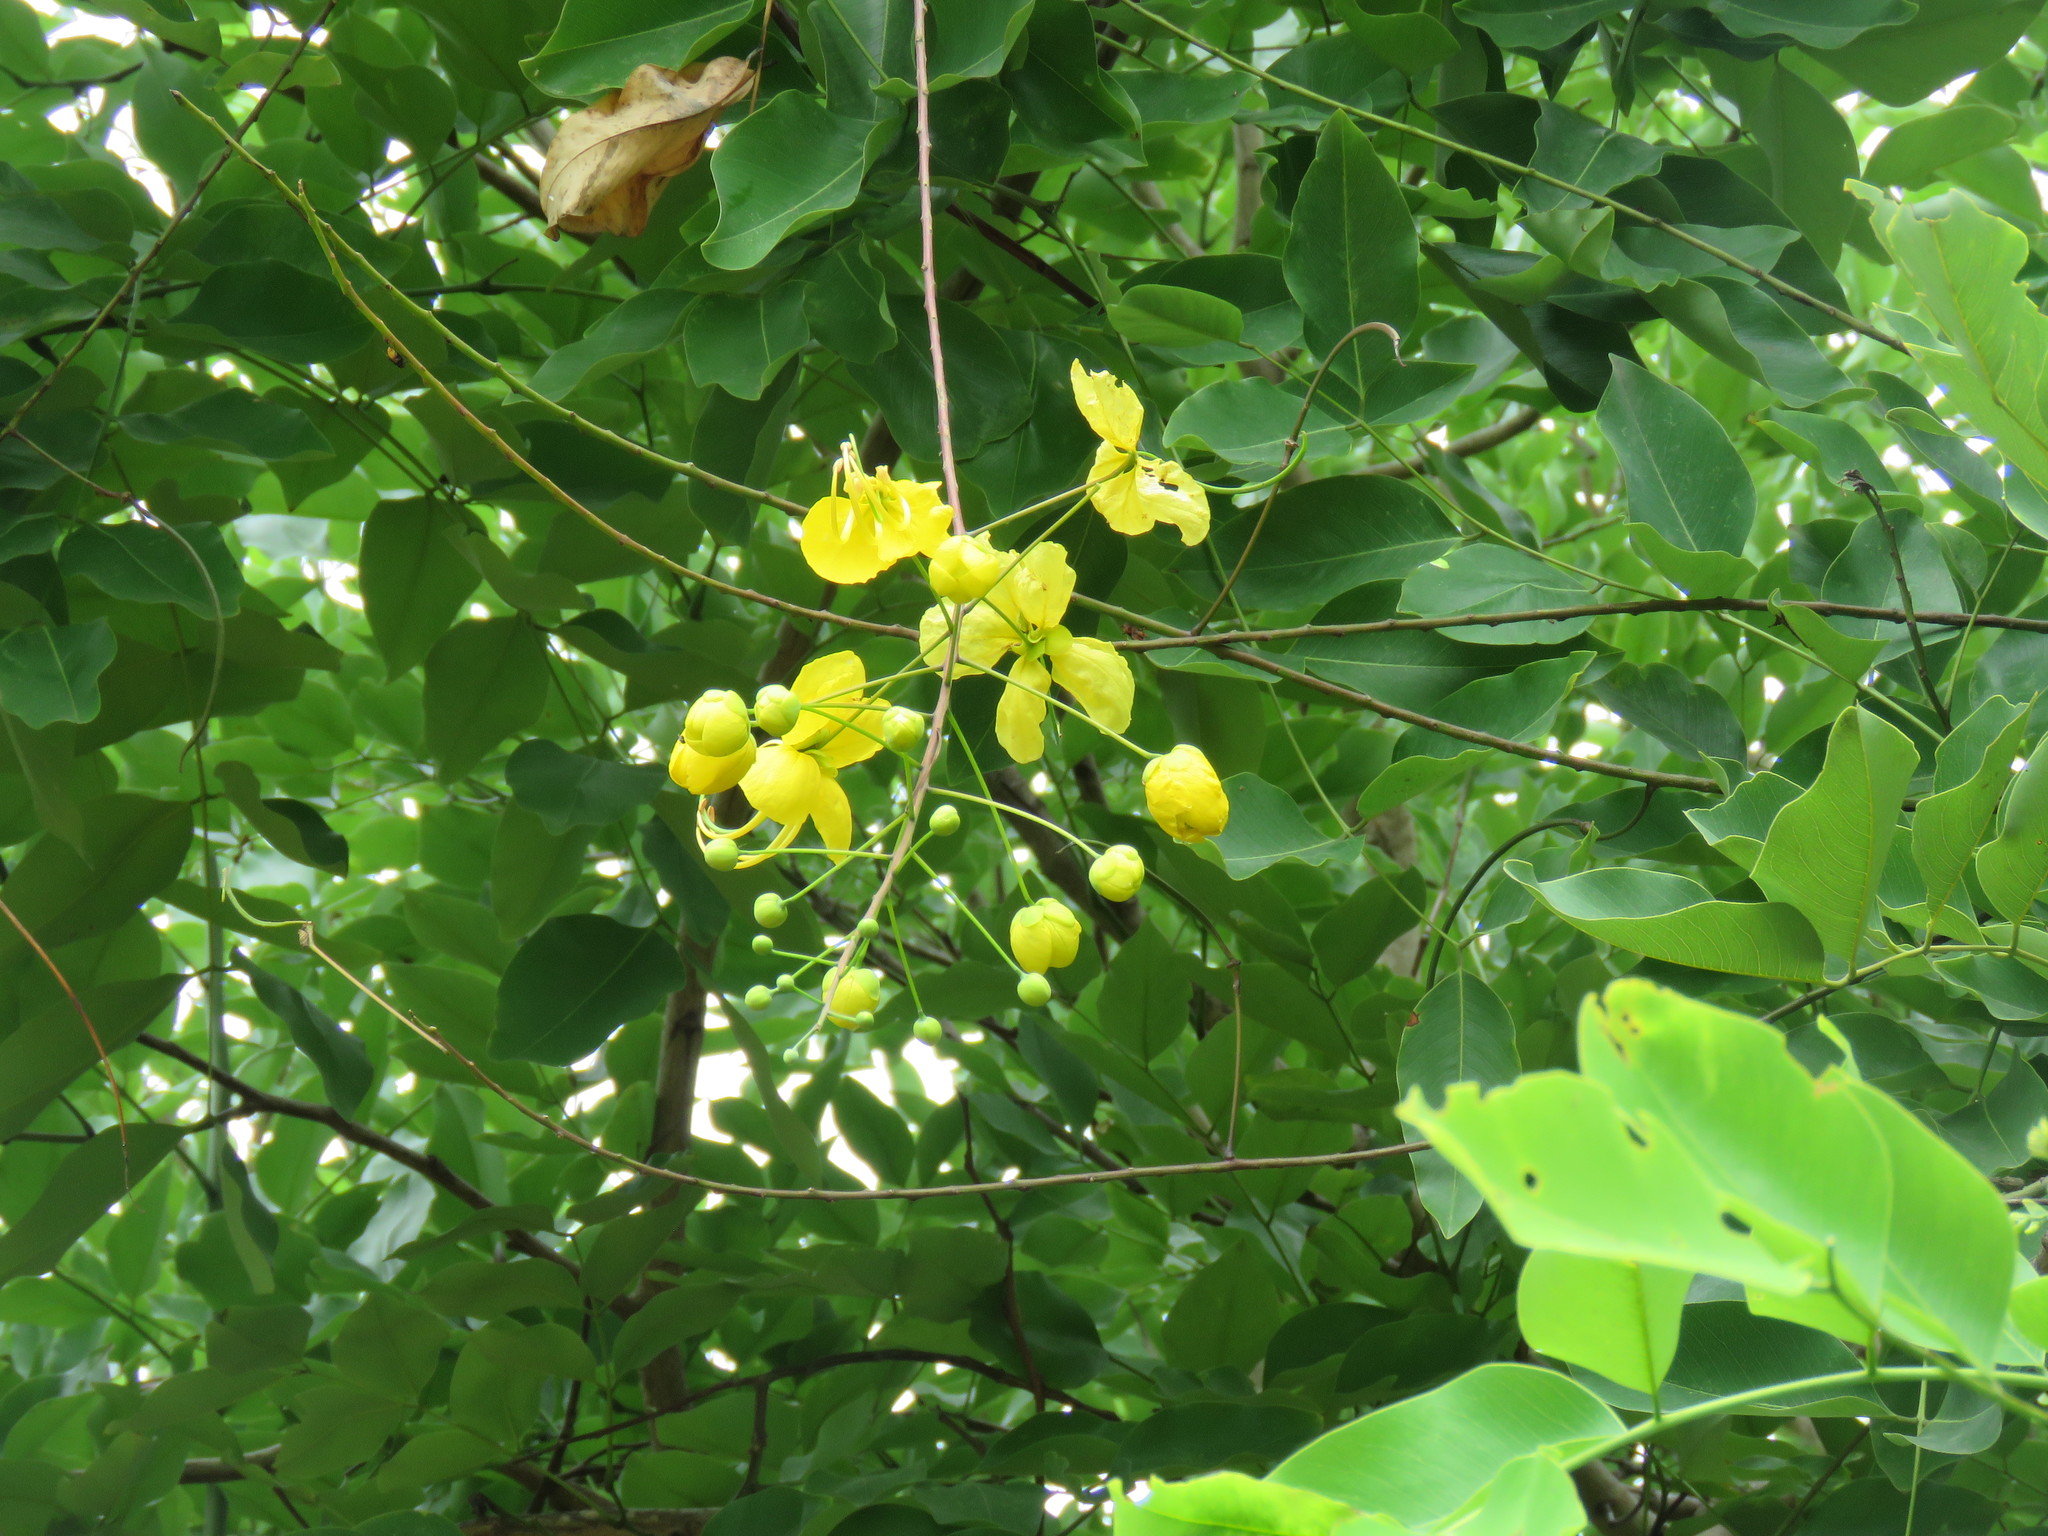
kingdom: Plantae
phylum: Tracheophyta
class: Magnoliopsida
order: Fabales
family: Fabaceae
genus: Cassia
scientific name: Cassia fistula
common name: Golden shower
